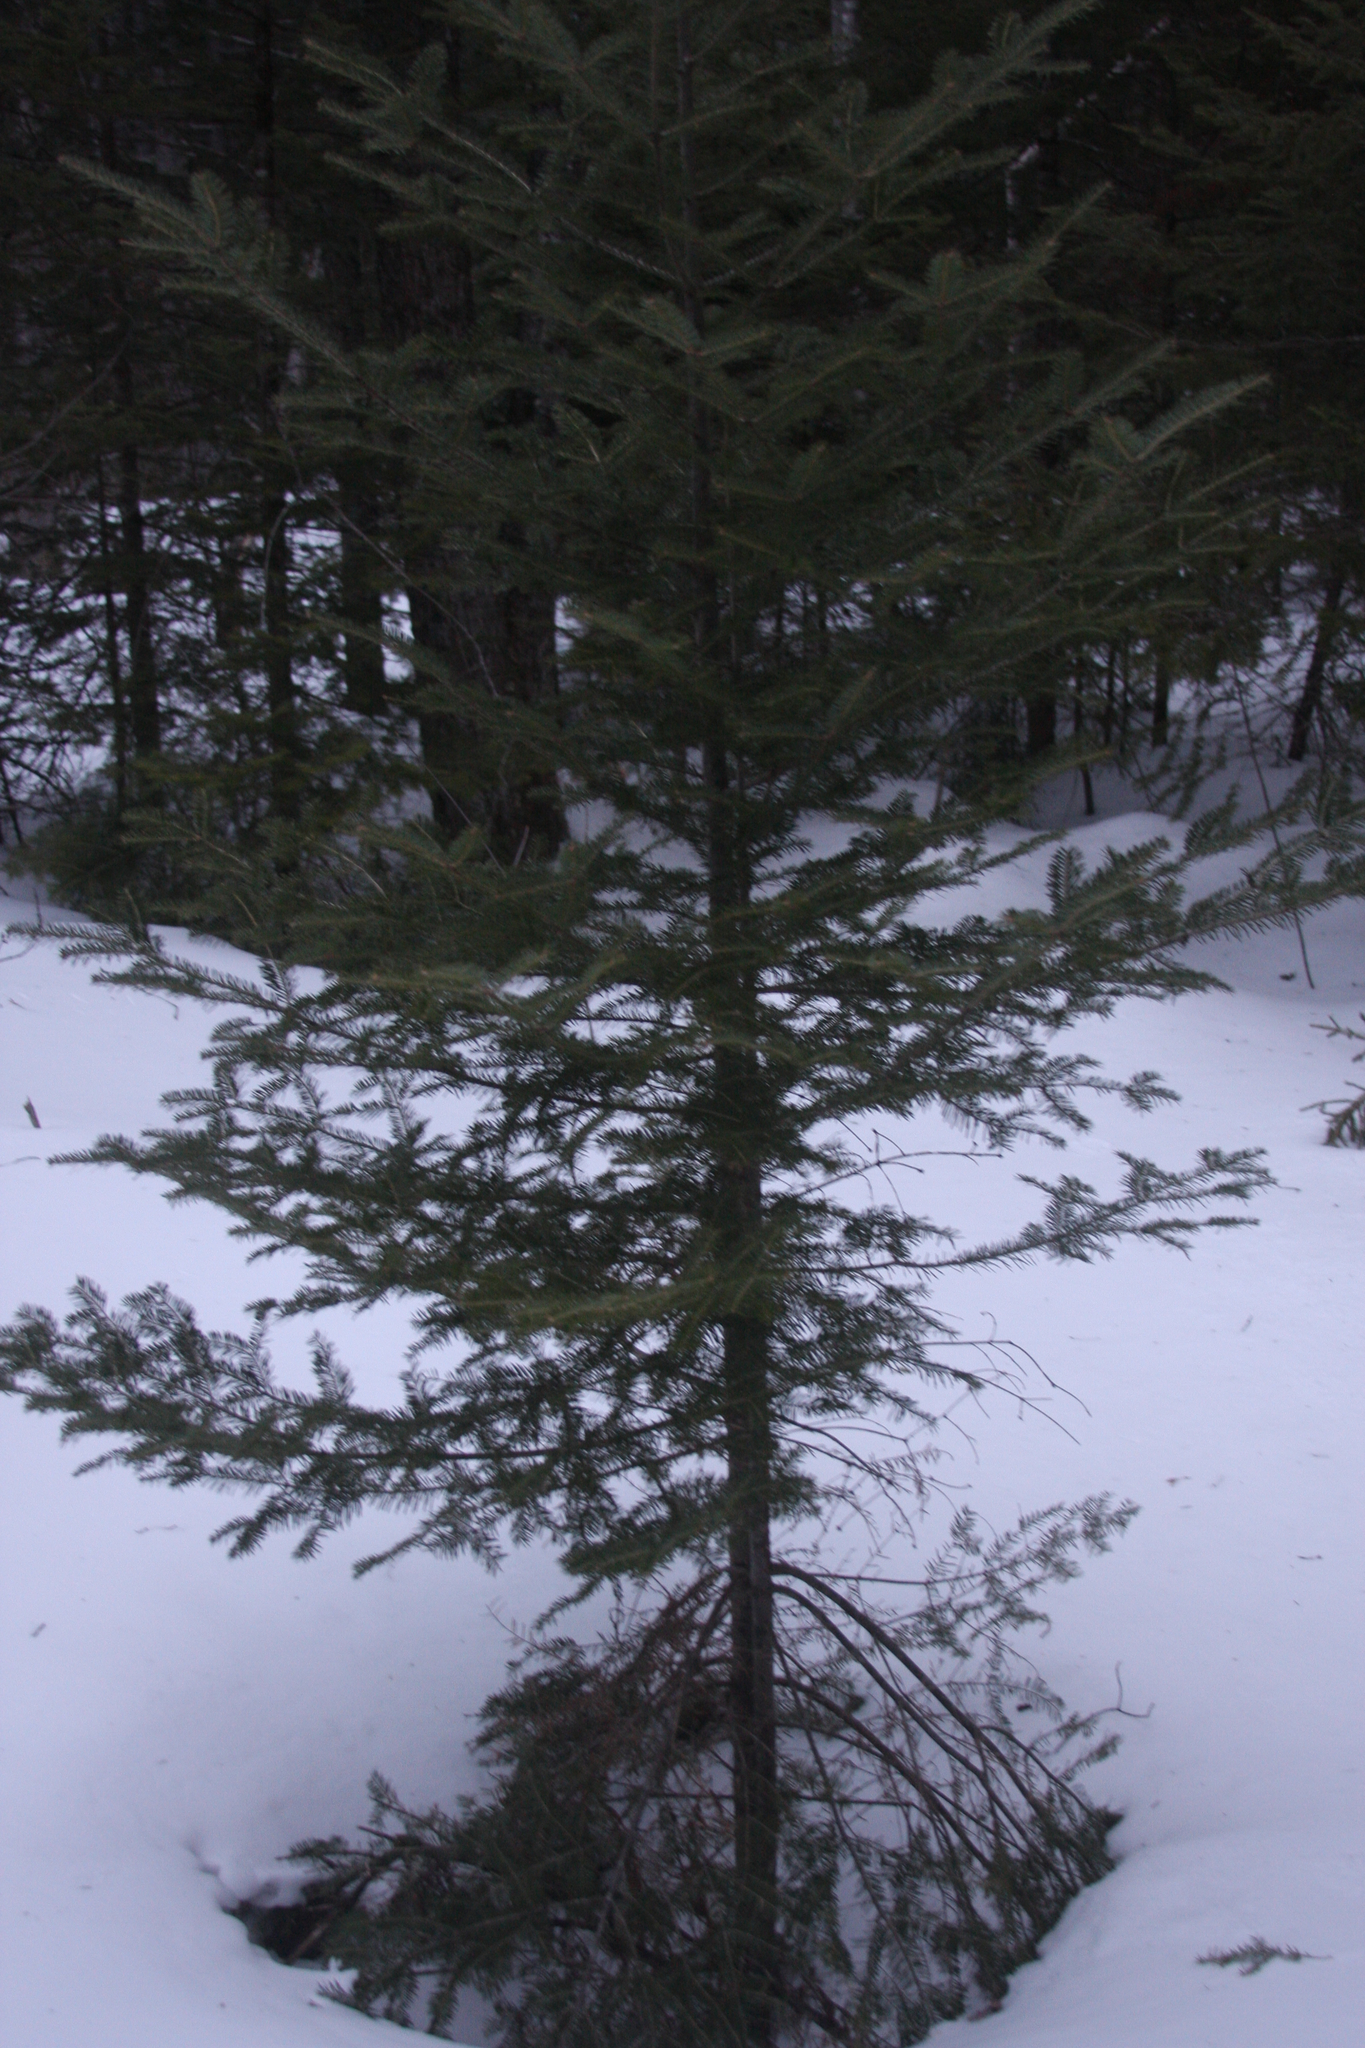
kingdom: Plantae
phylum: Tracheophyta
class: Pinopsida
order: Pinales
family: Pinaceae
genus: Abies
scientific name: Abies balsamea
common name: Balsam fir
